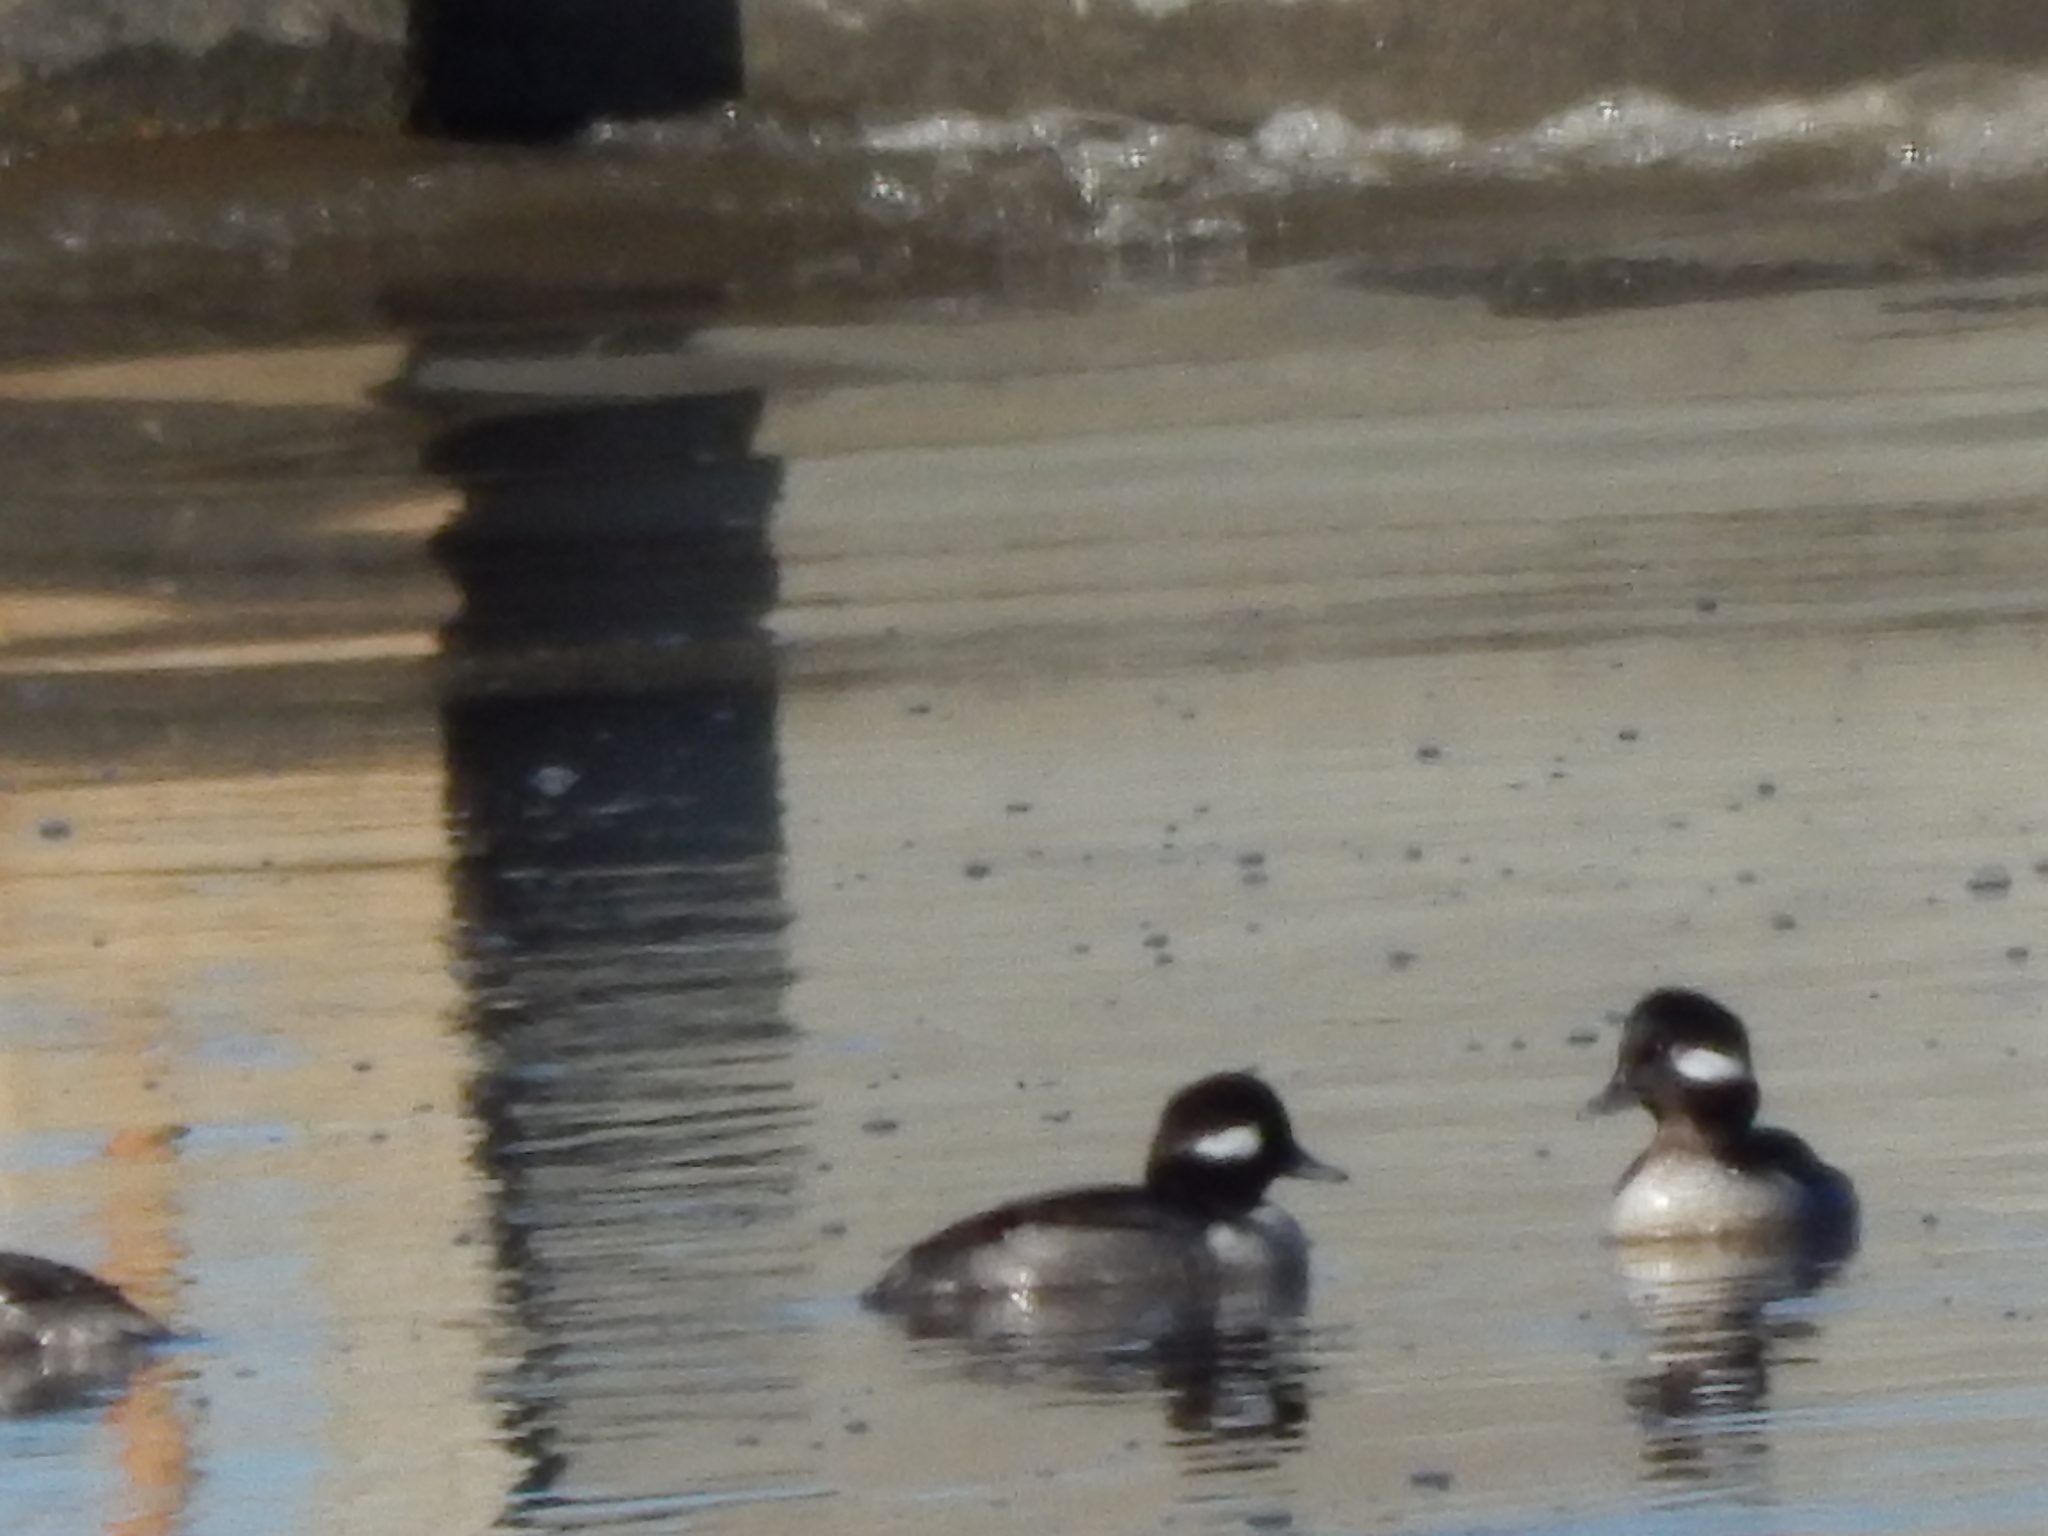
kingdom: Animalia
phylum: Chordata
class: Aves
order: Anseriformes
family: Anatidae
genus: Bucephala
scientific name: Bucephala albeola
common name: Bufflehead
